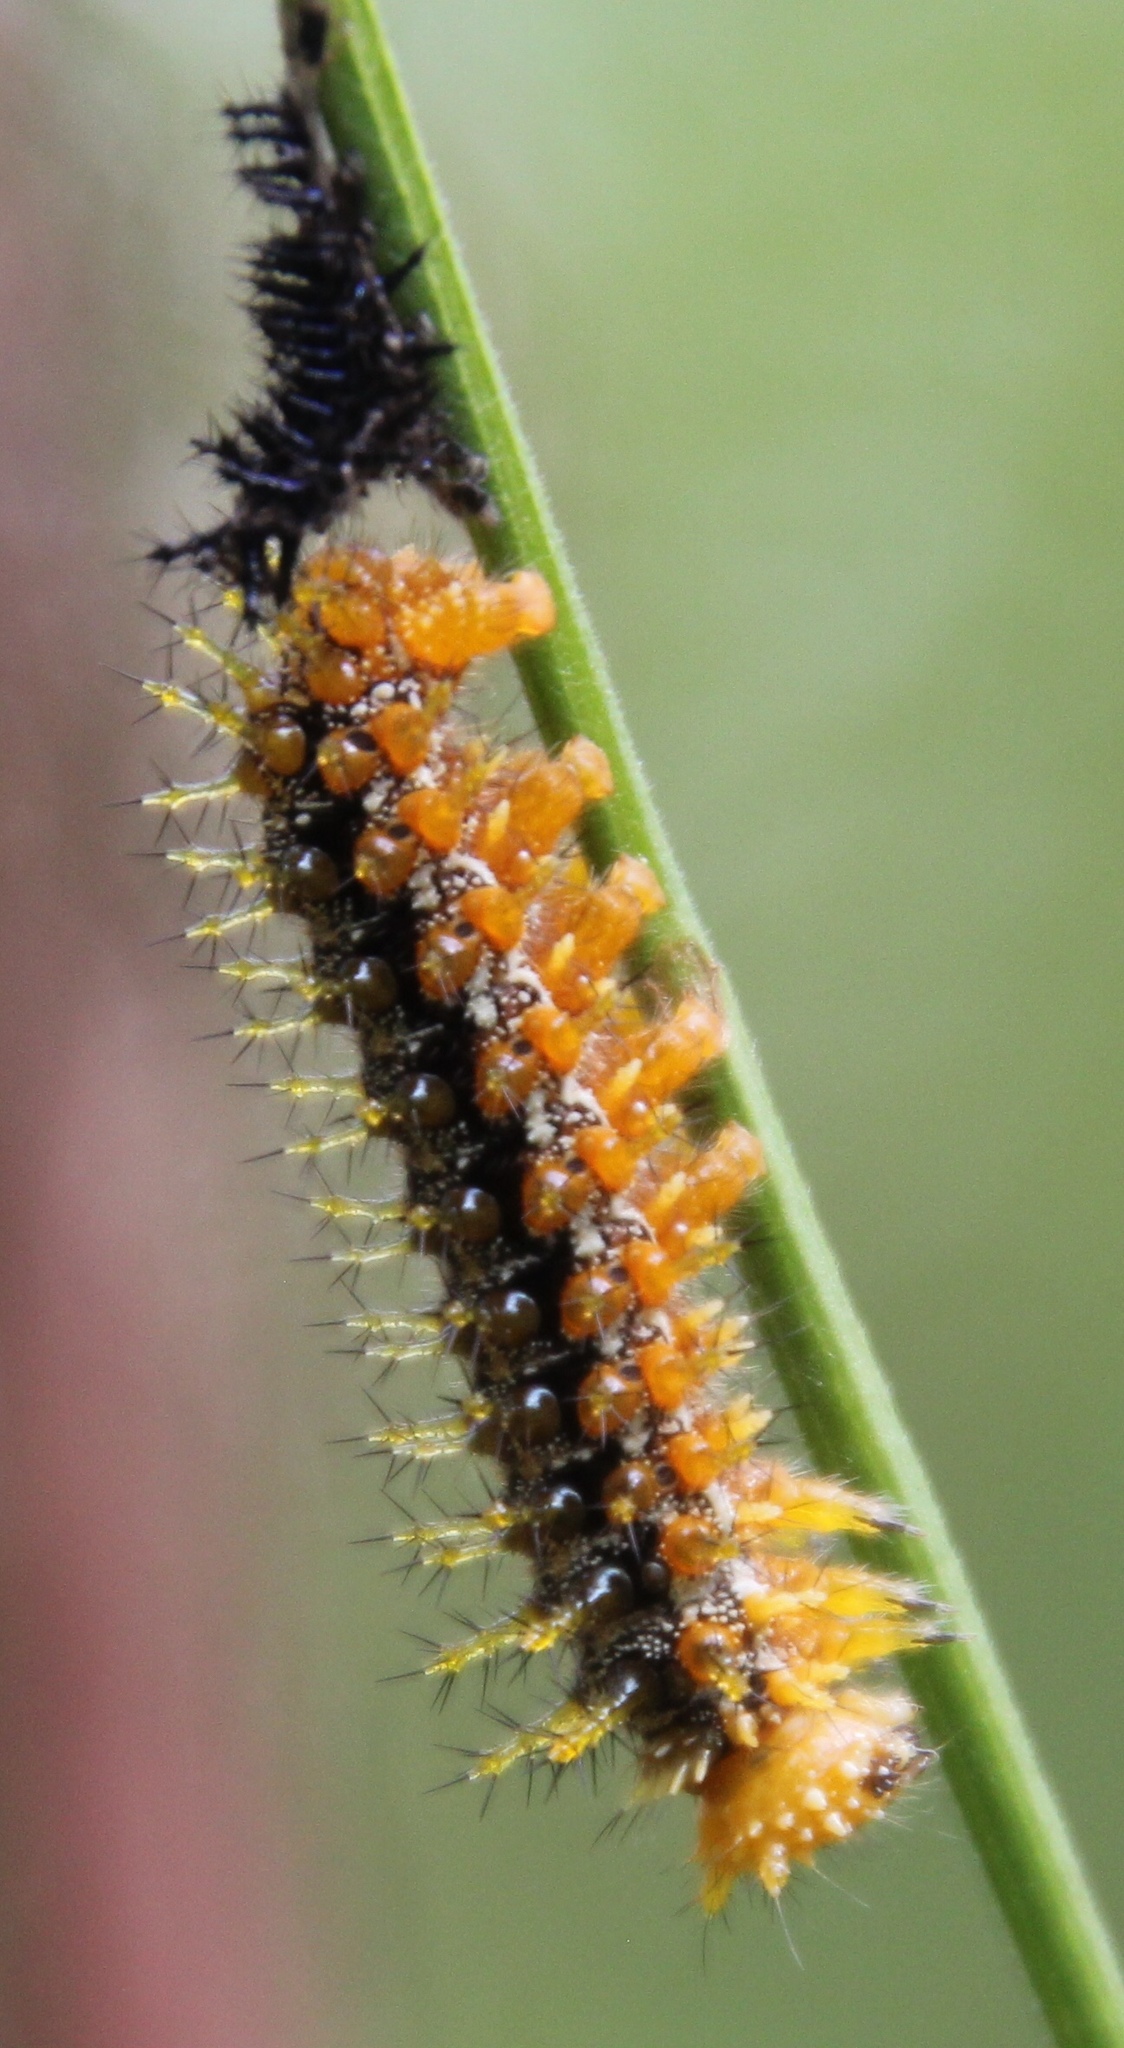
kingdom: Animalia
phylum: Arthropoda
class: Insecta
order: Lepidoptera
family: Nymphalidae
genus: Dione
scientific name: Dione vanillae
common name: Gulf fritillary
